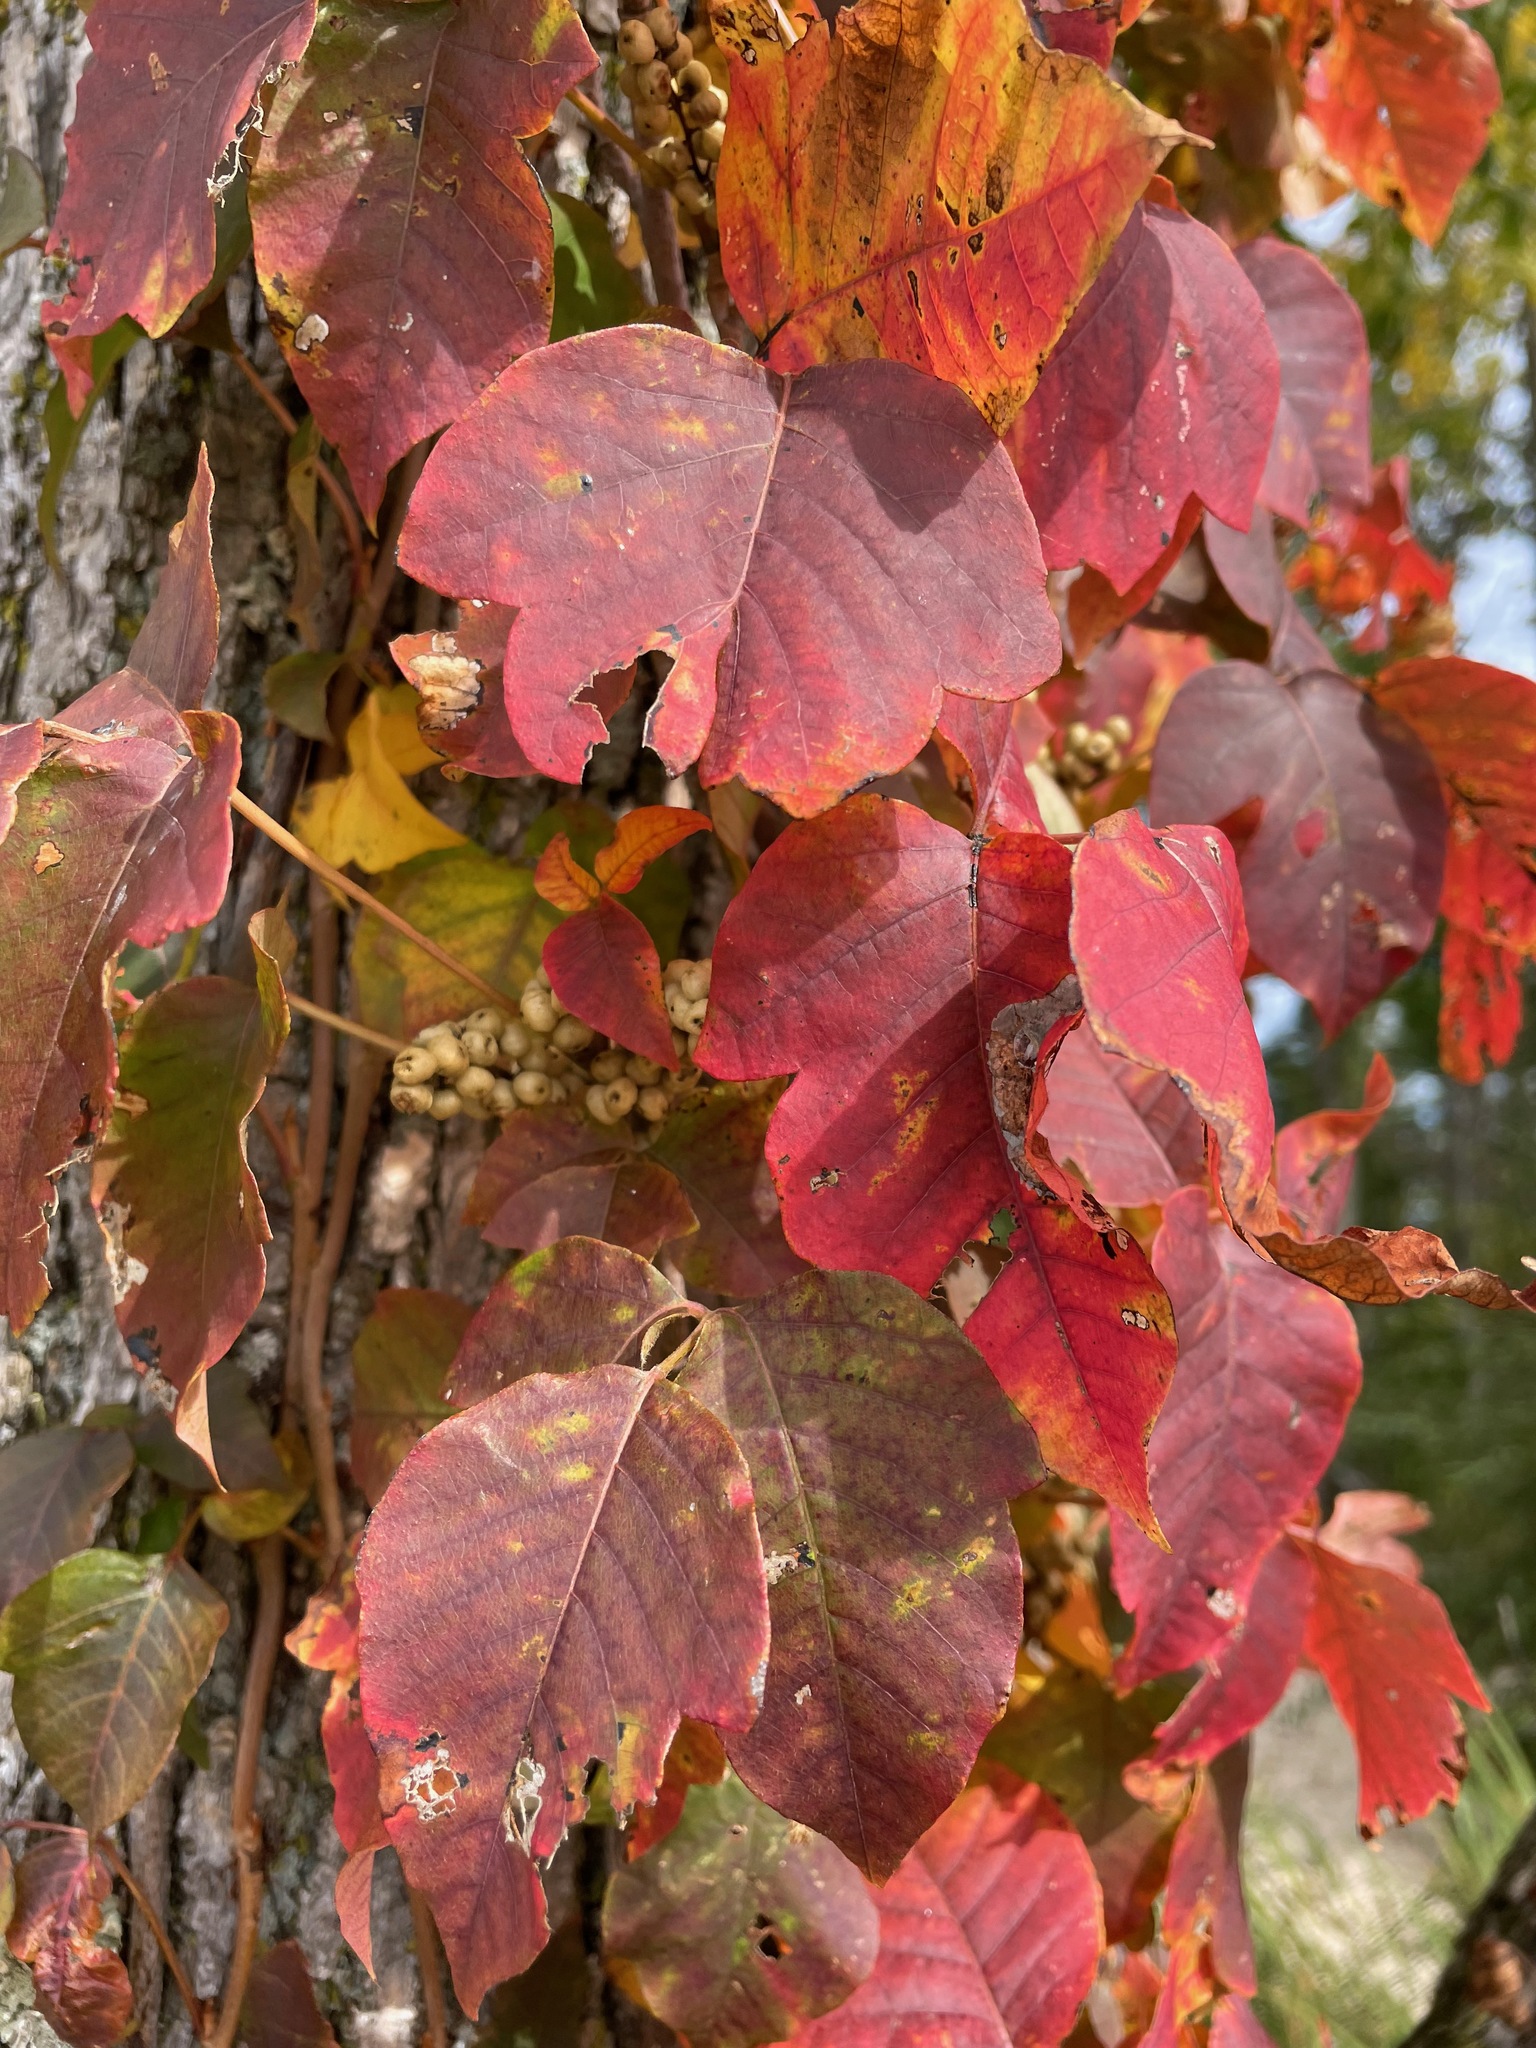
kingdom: Plantae
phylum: Tracheophyta
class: Magnoliopsida
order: Sapindales
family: Anacardiaceae
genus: Toxicodendron
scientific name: Toxicodendron radicans
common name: Poison ivy
